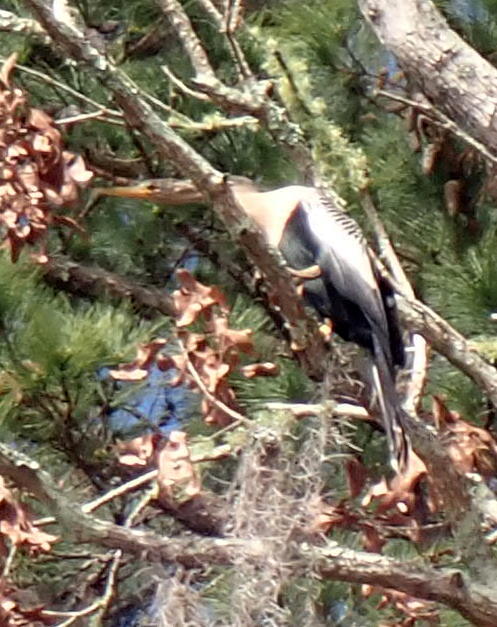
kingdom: Animalia
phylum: Chordata
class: Aves
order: Suliformes
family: Anhingidae
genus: Anhinga
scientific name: Anhinga anhinga
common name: Anhinga
